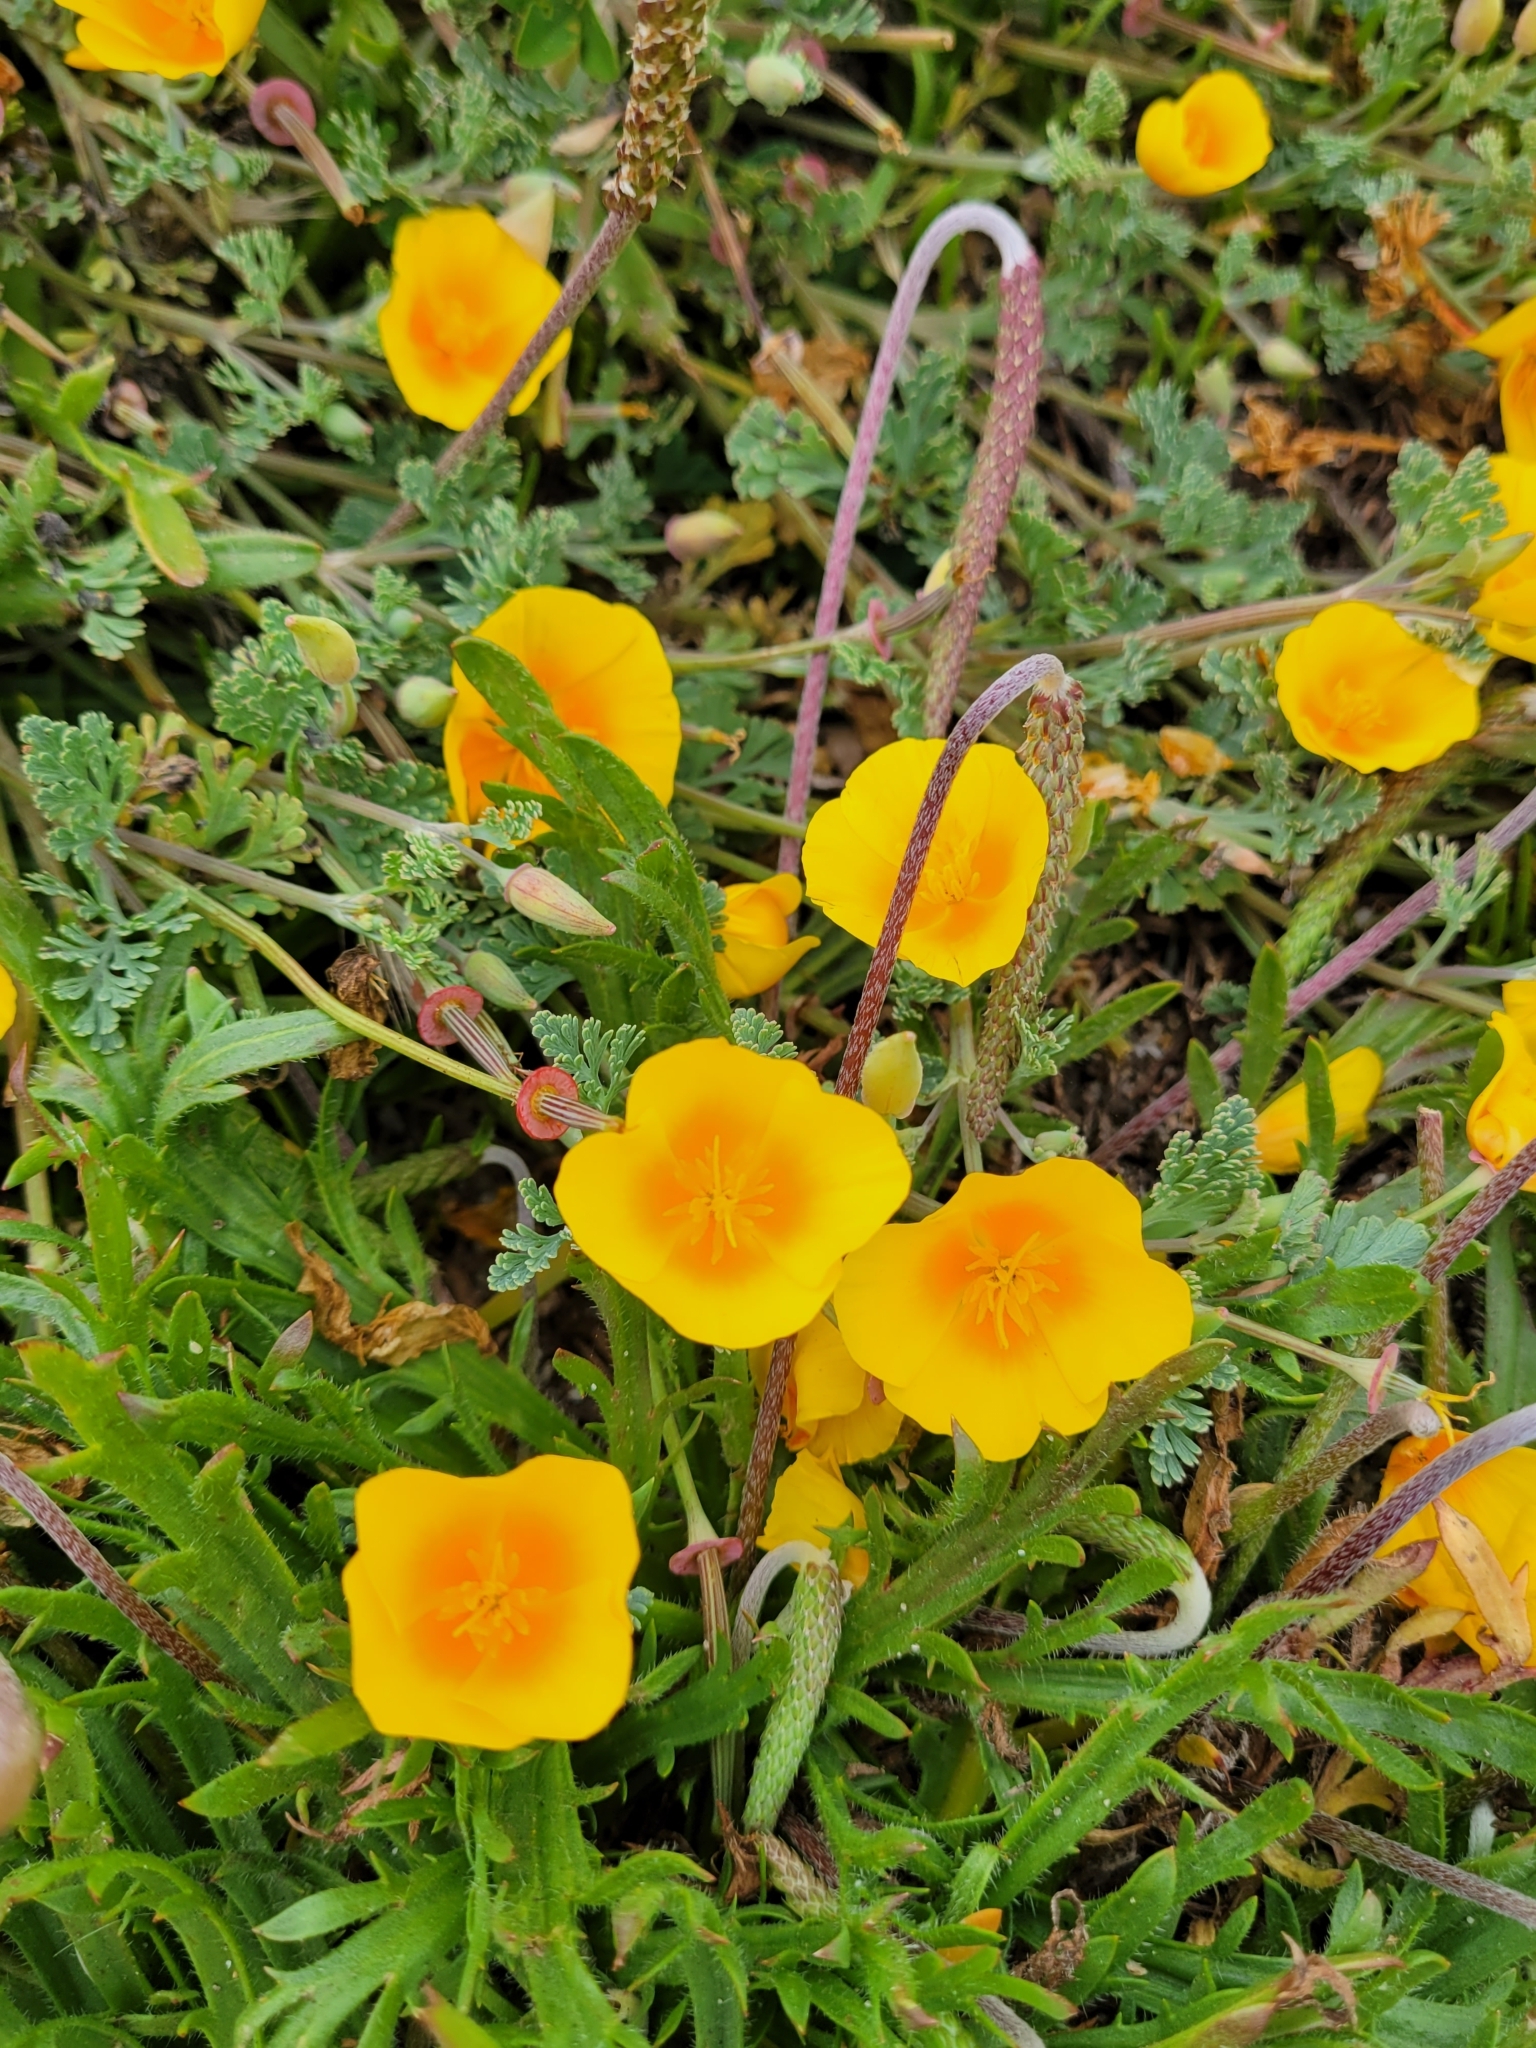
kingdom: Plantae
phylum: Tracheophyta
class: Magnoliopsida
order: Ranunculales
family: Papaveraceae
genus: Eschscholzia
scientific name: Eschscholzia californica
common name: California poppy
